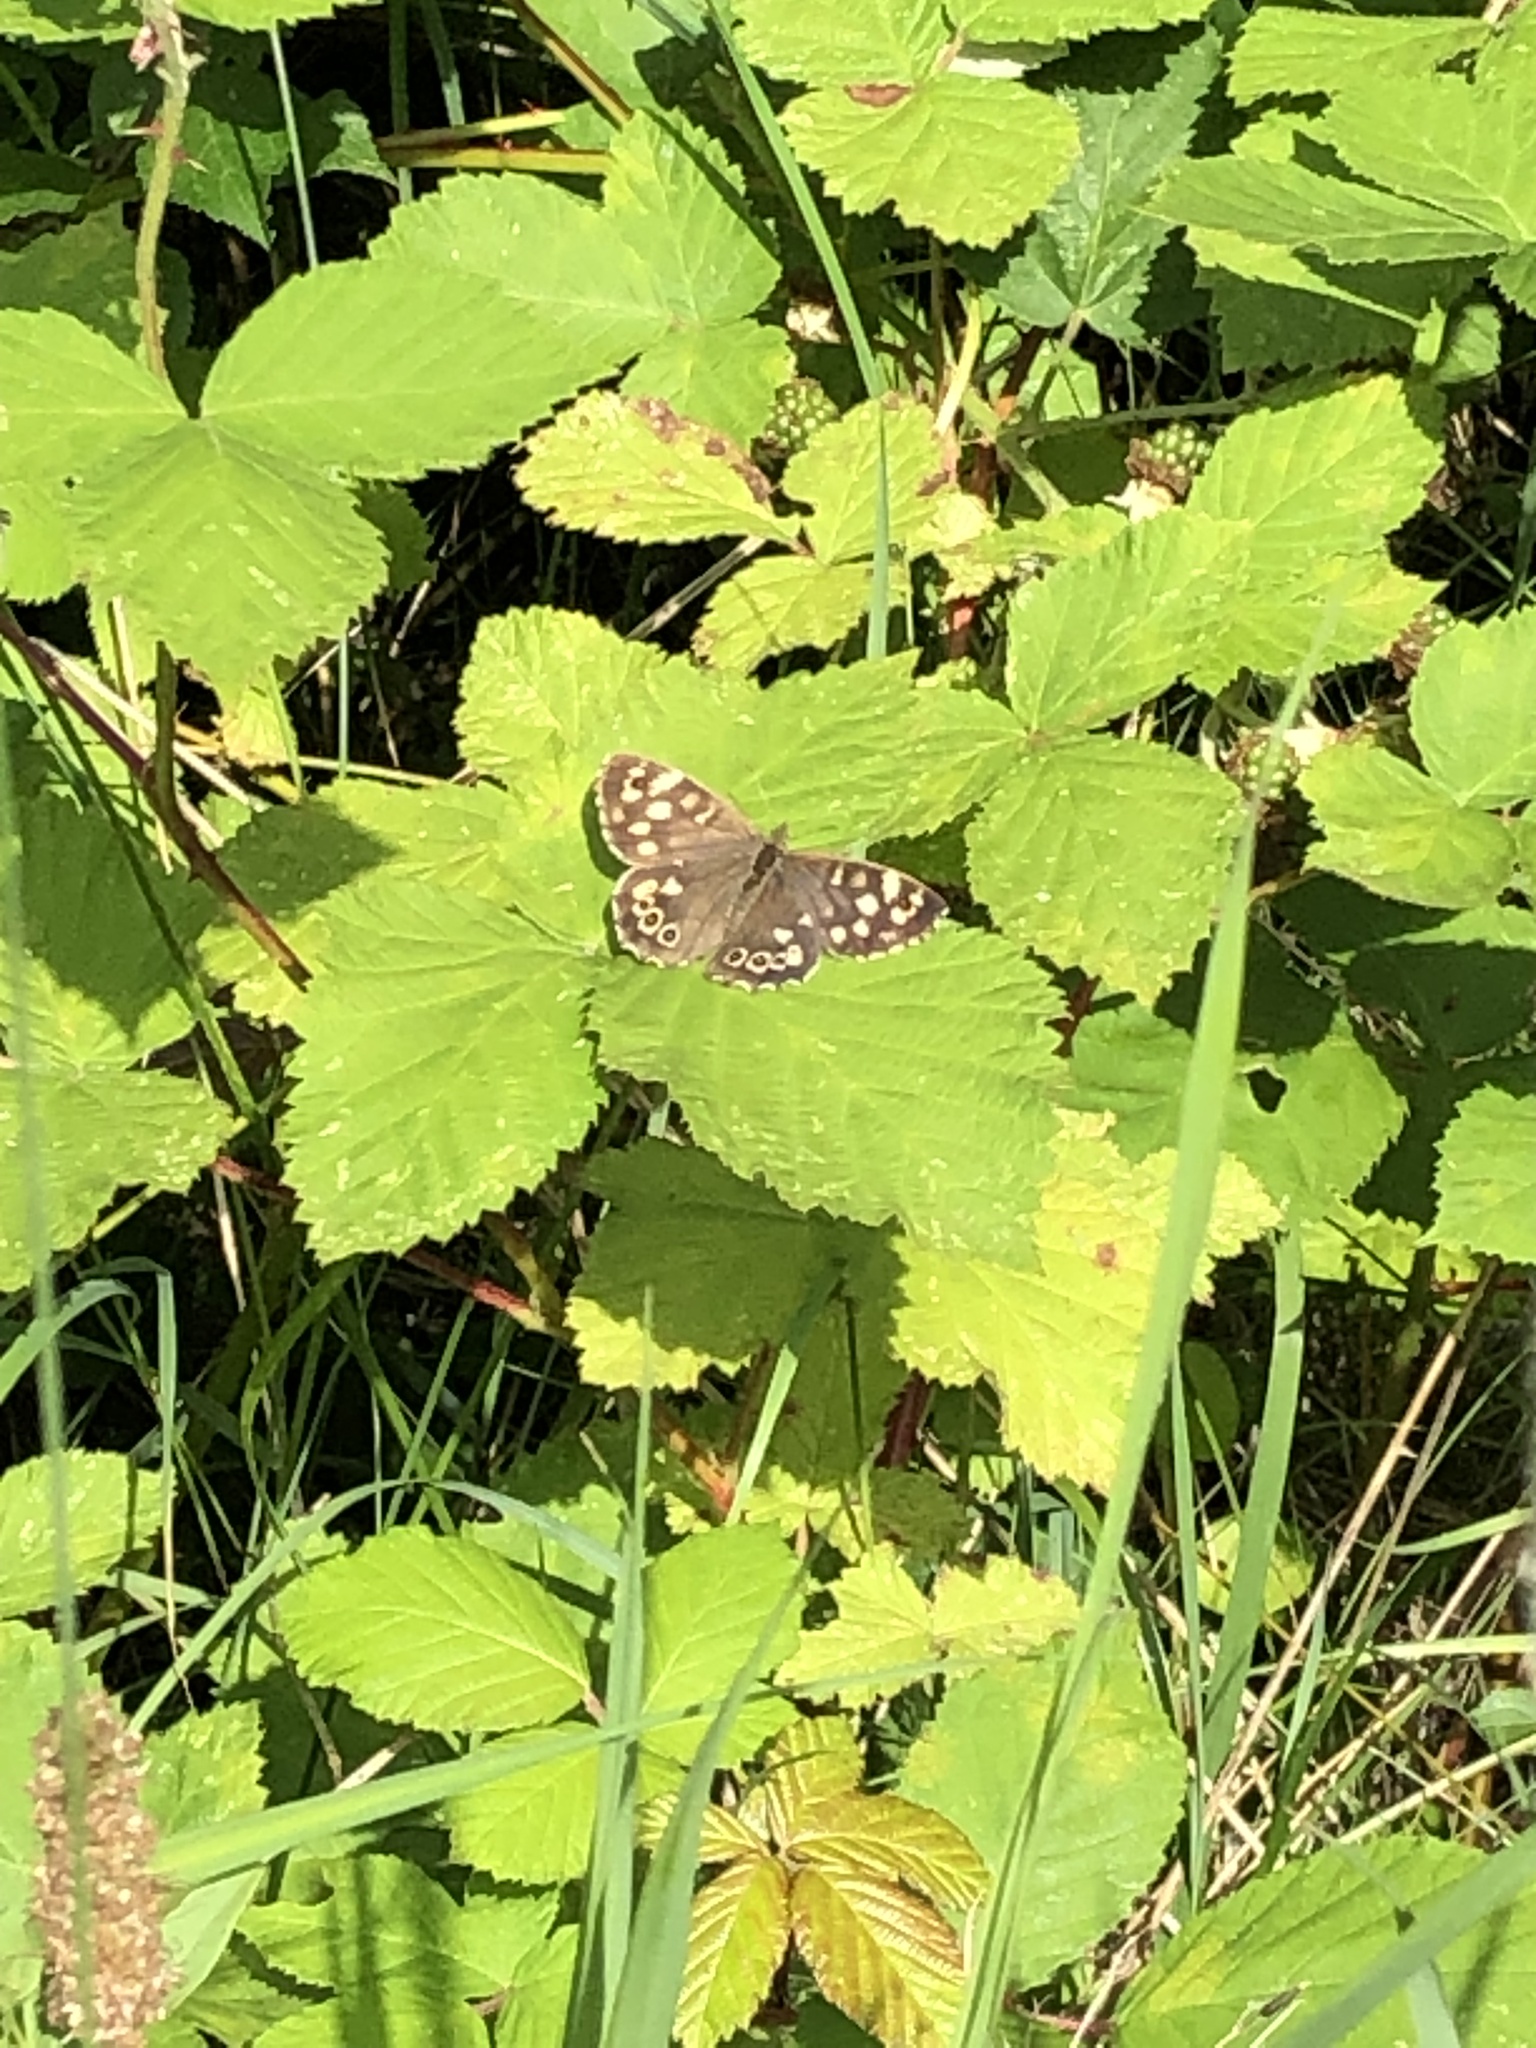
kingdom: Animalia
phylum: Arthropoda
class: Insecta
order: Lepidoptera
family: Nymphalidae
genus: Pararge
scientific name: Pararge aegeria
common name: Speckled wood
